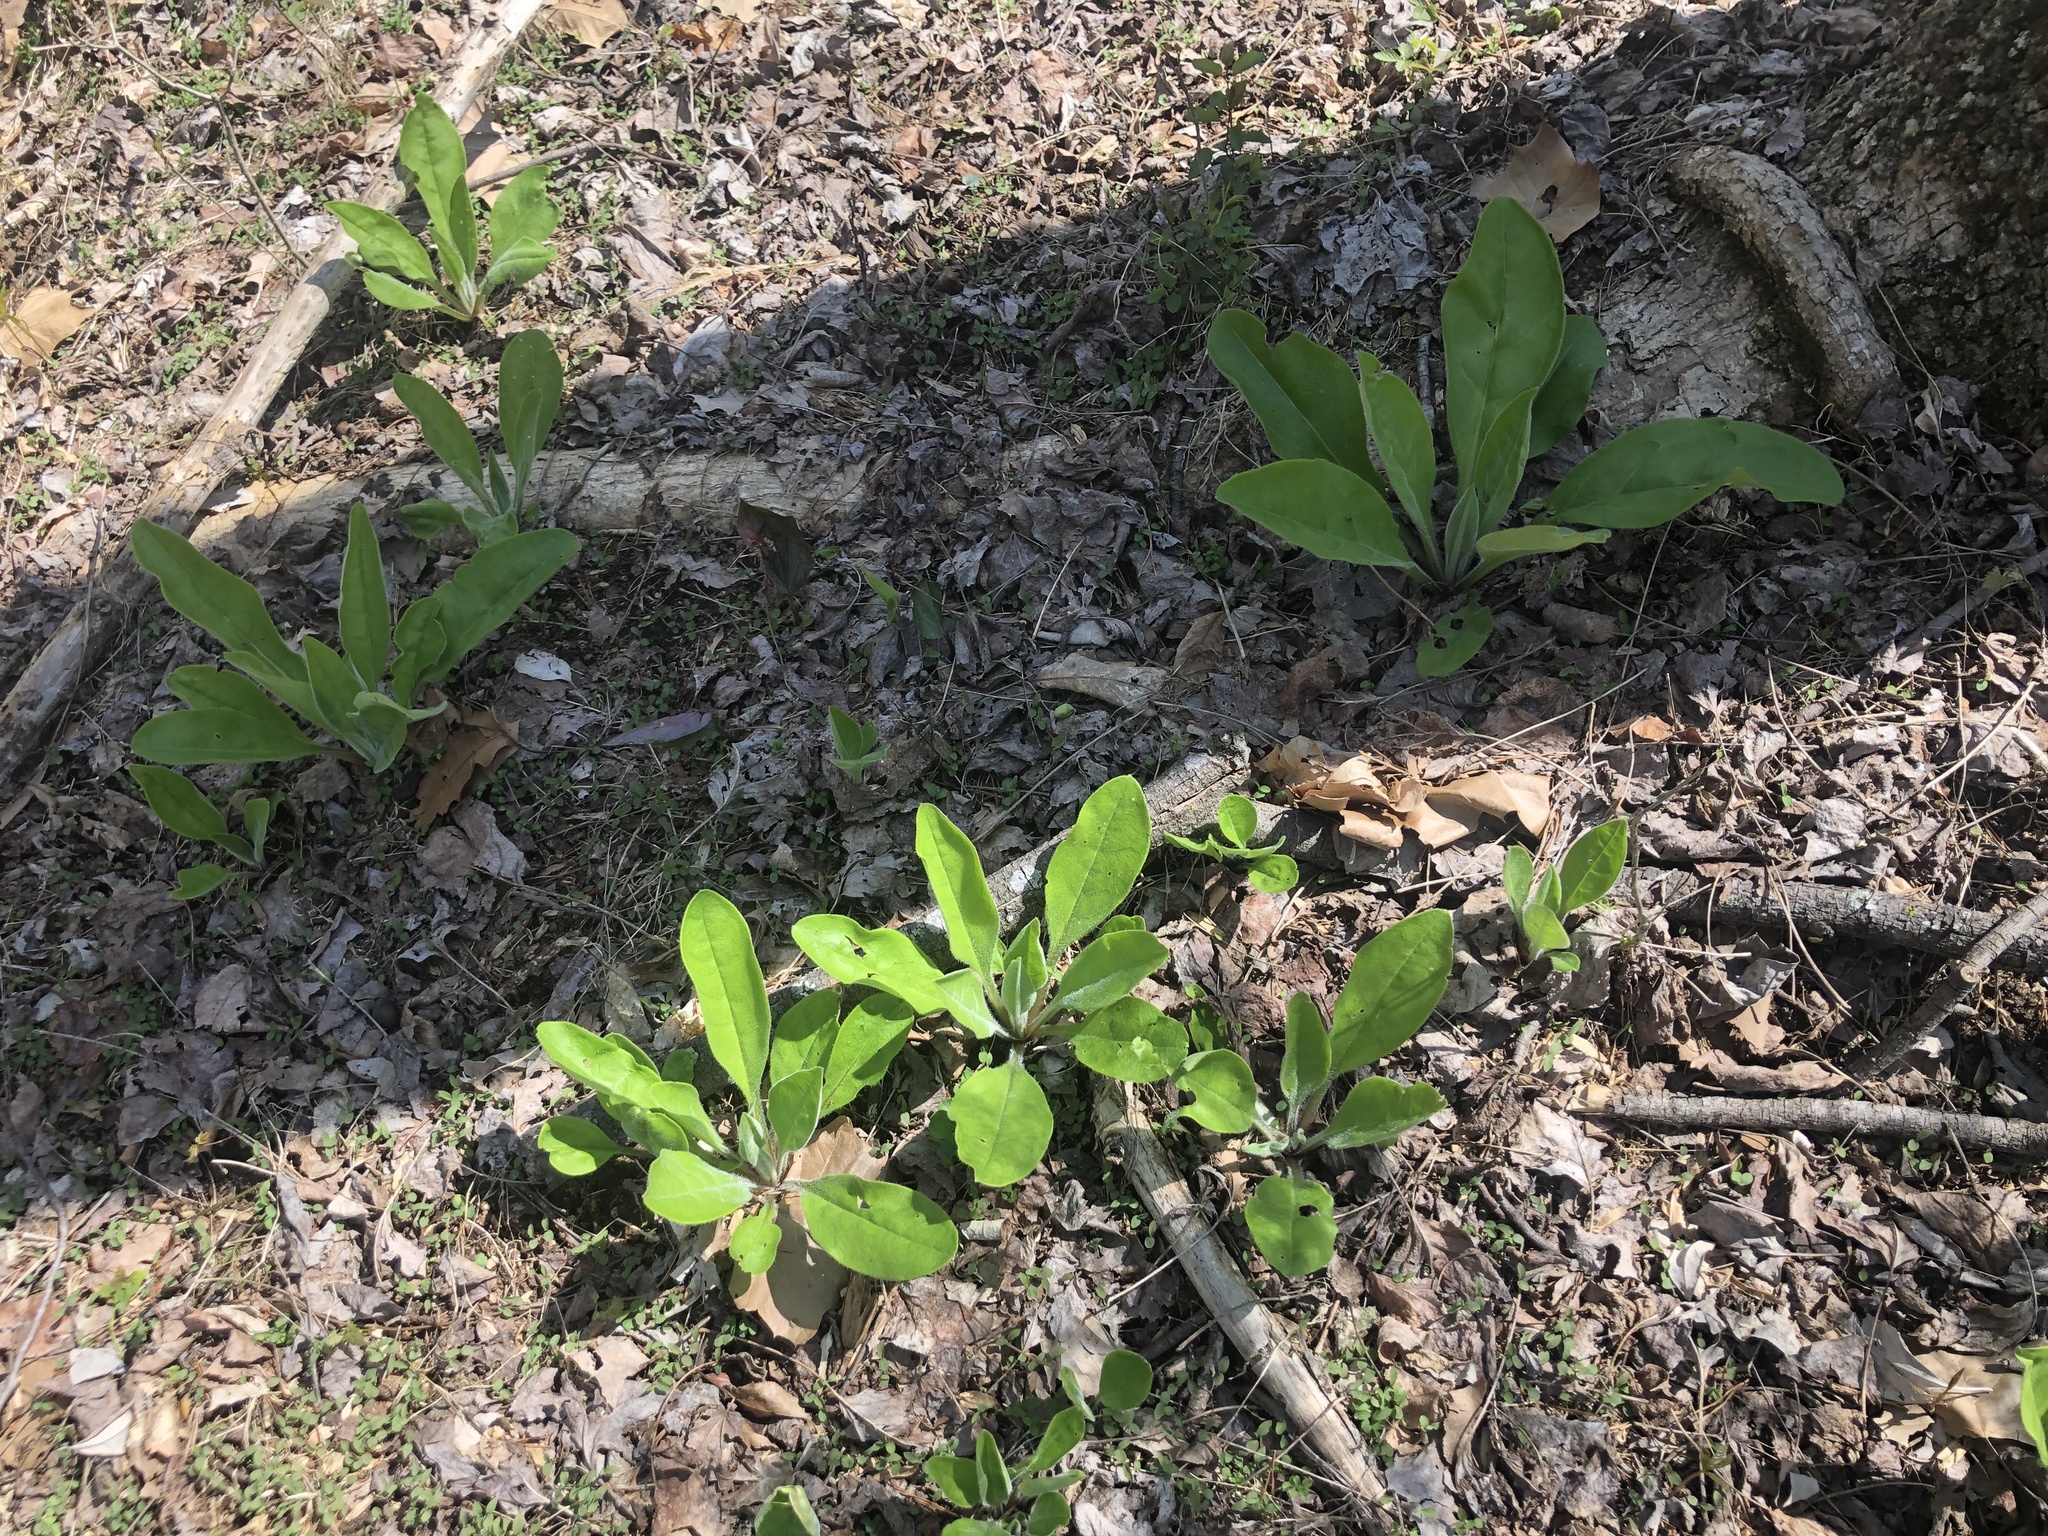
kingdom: Plantae
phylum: Tracheophyta
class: Magnoliopsida
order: Boraginales
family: Boraginaceae
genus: Andersonglossum
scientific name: Andersonglossum virginianum
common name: Wild comfrey
